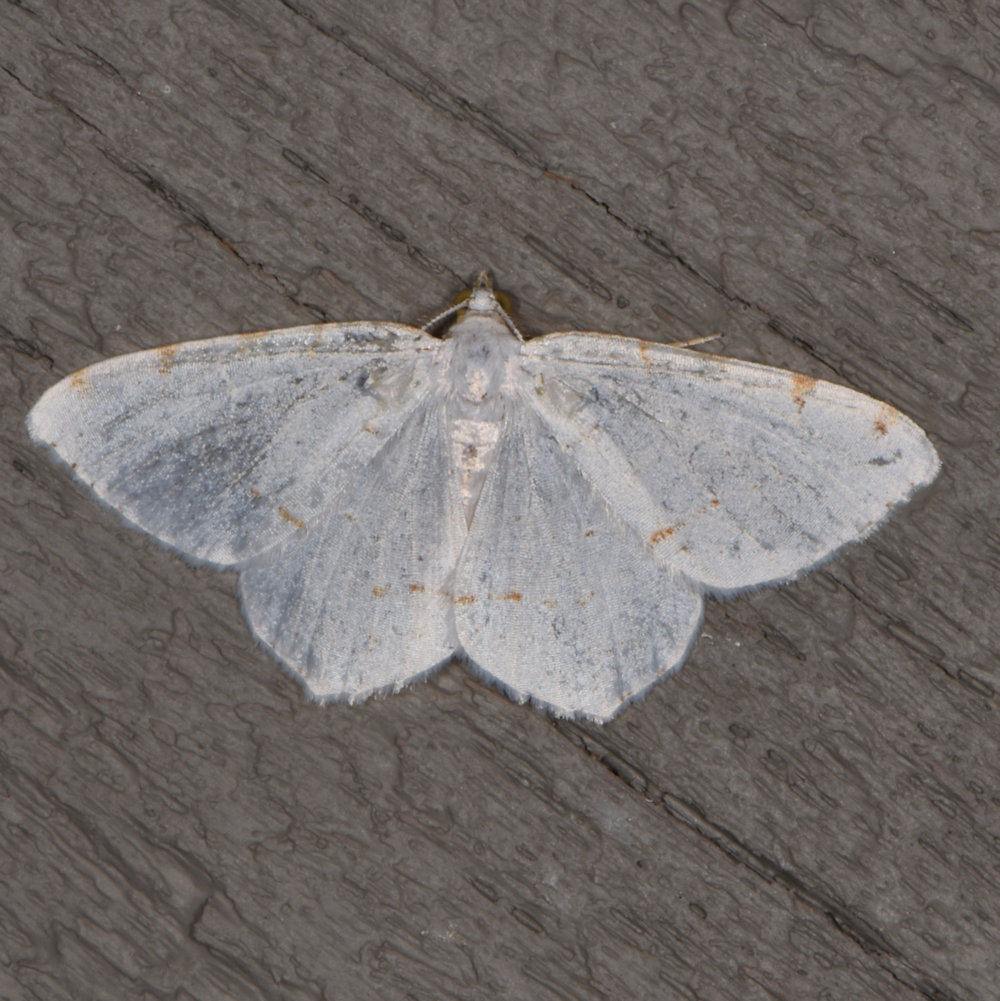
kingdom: Animalia
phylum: Arthropoda
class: Insecta
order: Lepidoptera
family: Geometridae
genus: Macaria
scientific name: Macaria pustularia
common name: Lesser maple spanworm moth
